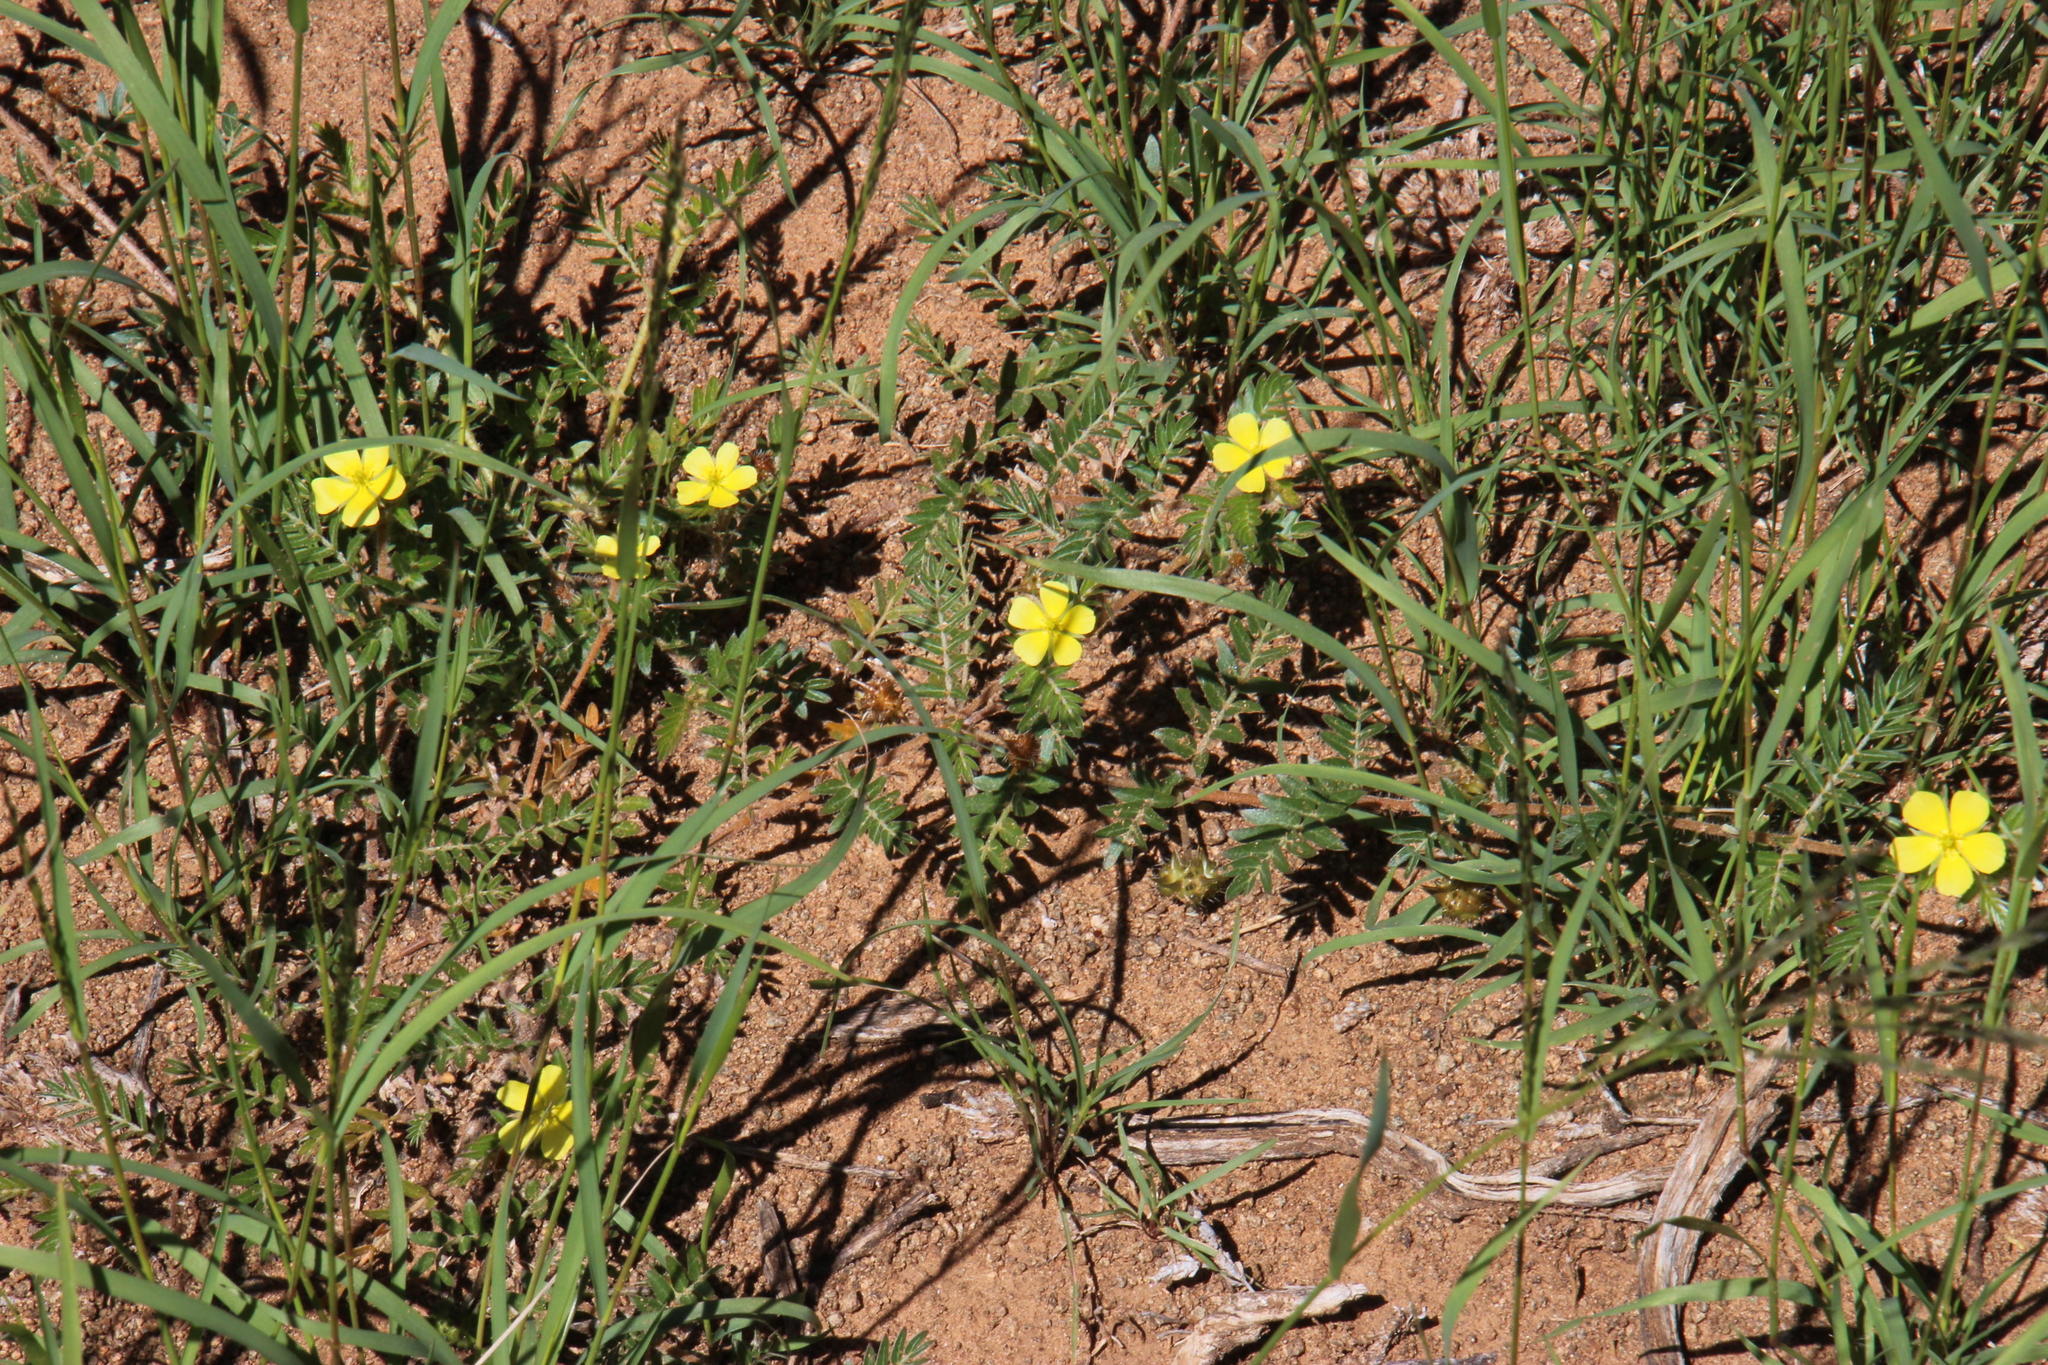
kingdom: Plantae
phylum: Tracheophyta
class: Magnoliopsida
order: Zygophyllales
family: Zygophyllaceae
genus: Tribulus
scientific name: Tribulus terrestris
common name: Puncturevine
